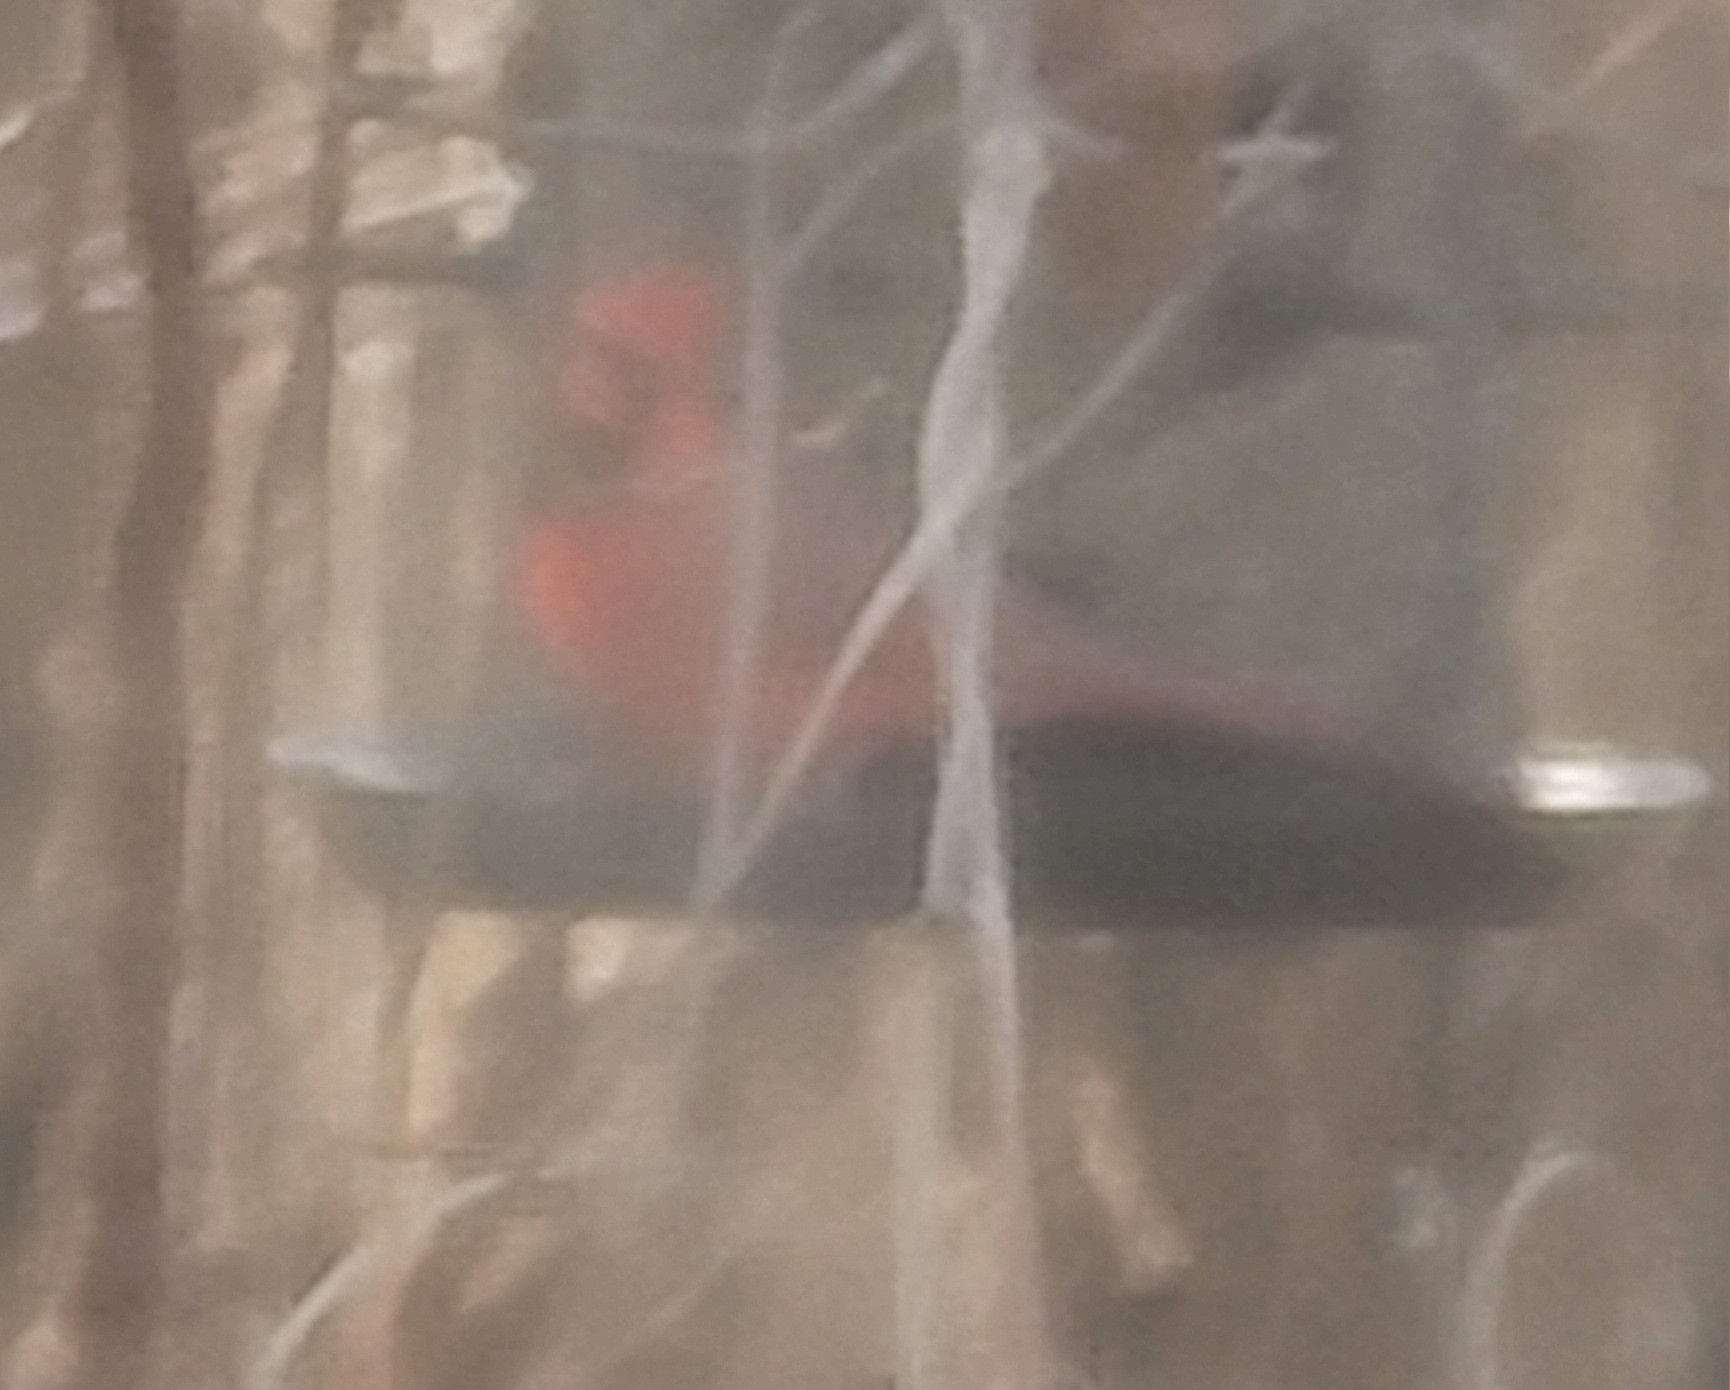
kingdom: Animalia
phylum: Chordata
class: Aves
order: Passeriformes
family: Cardinalidae
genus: Cardinalis
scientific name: Cardinalis cardinalis
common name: Northern cardinal
